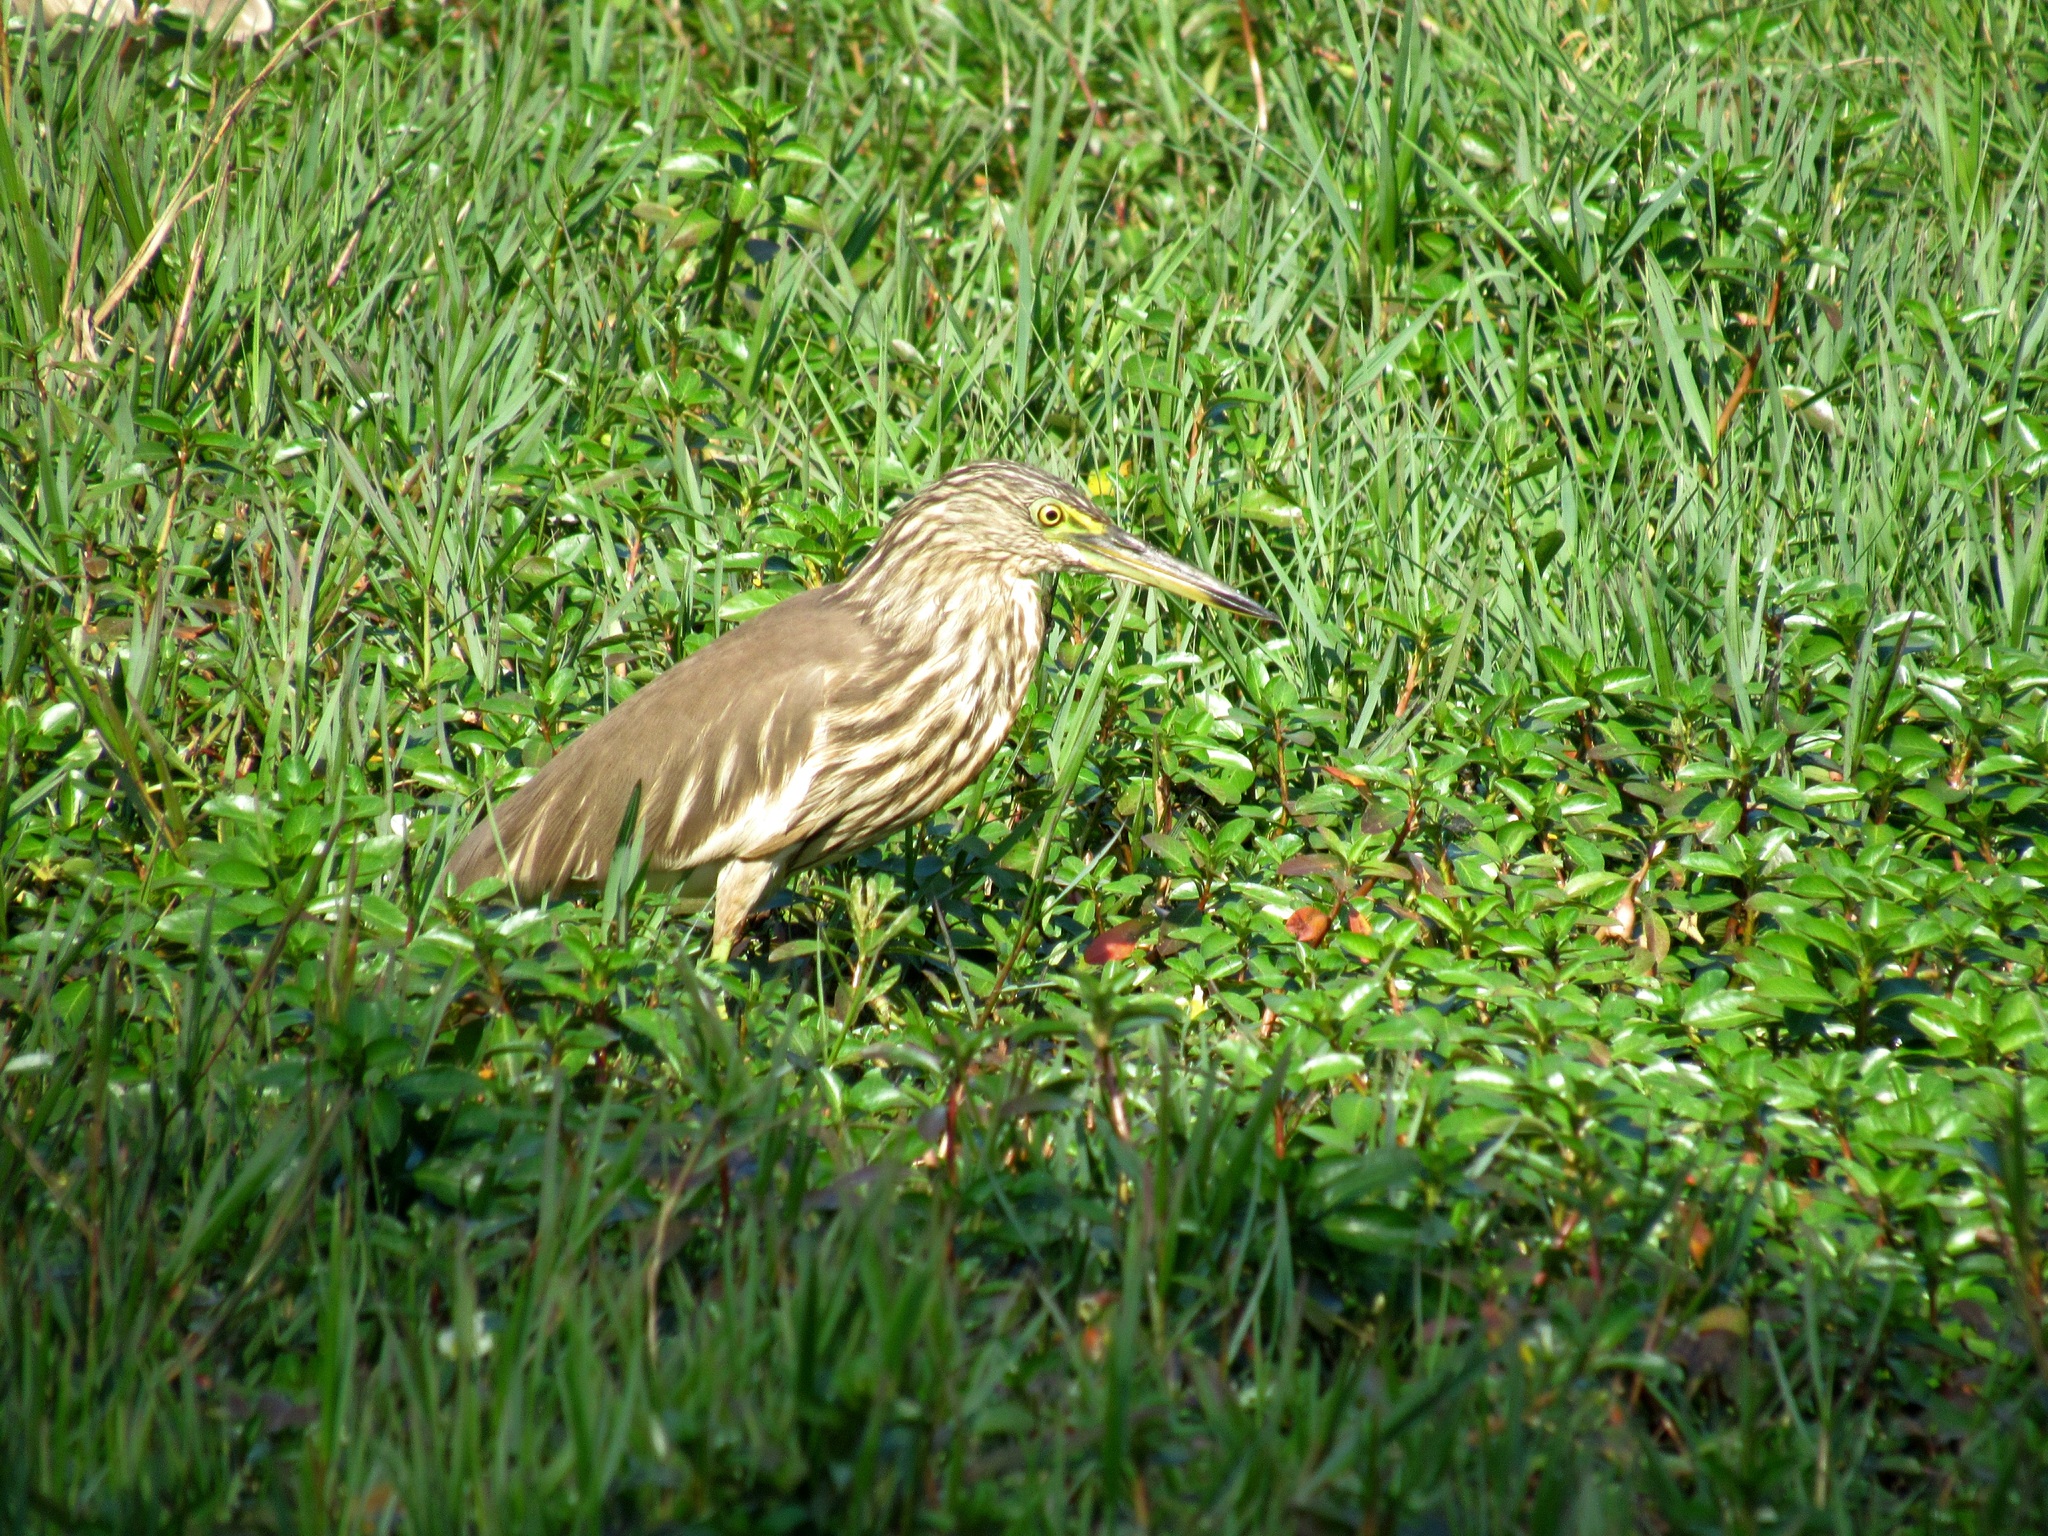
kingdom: Animalia
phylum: Chordata
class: Aves
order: Pelecaniformes
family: Ardeidae
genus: Ardeola
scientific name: Ardeola grayii
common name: Indian pond heron
